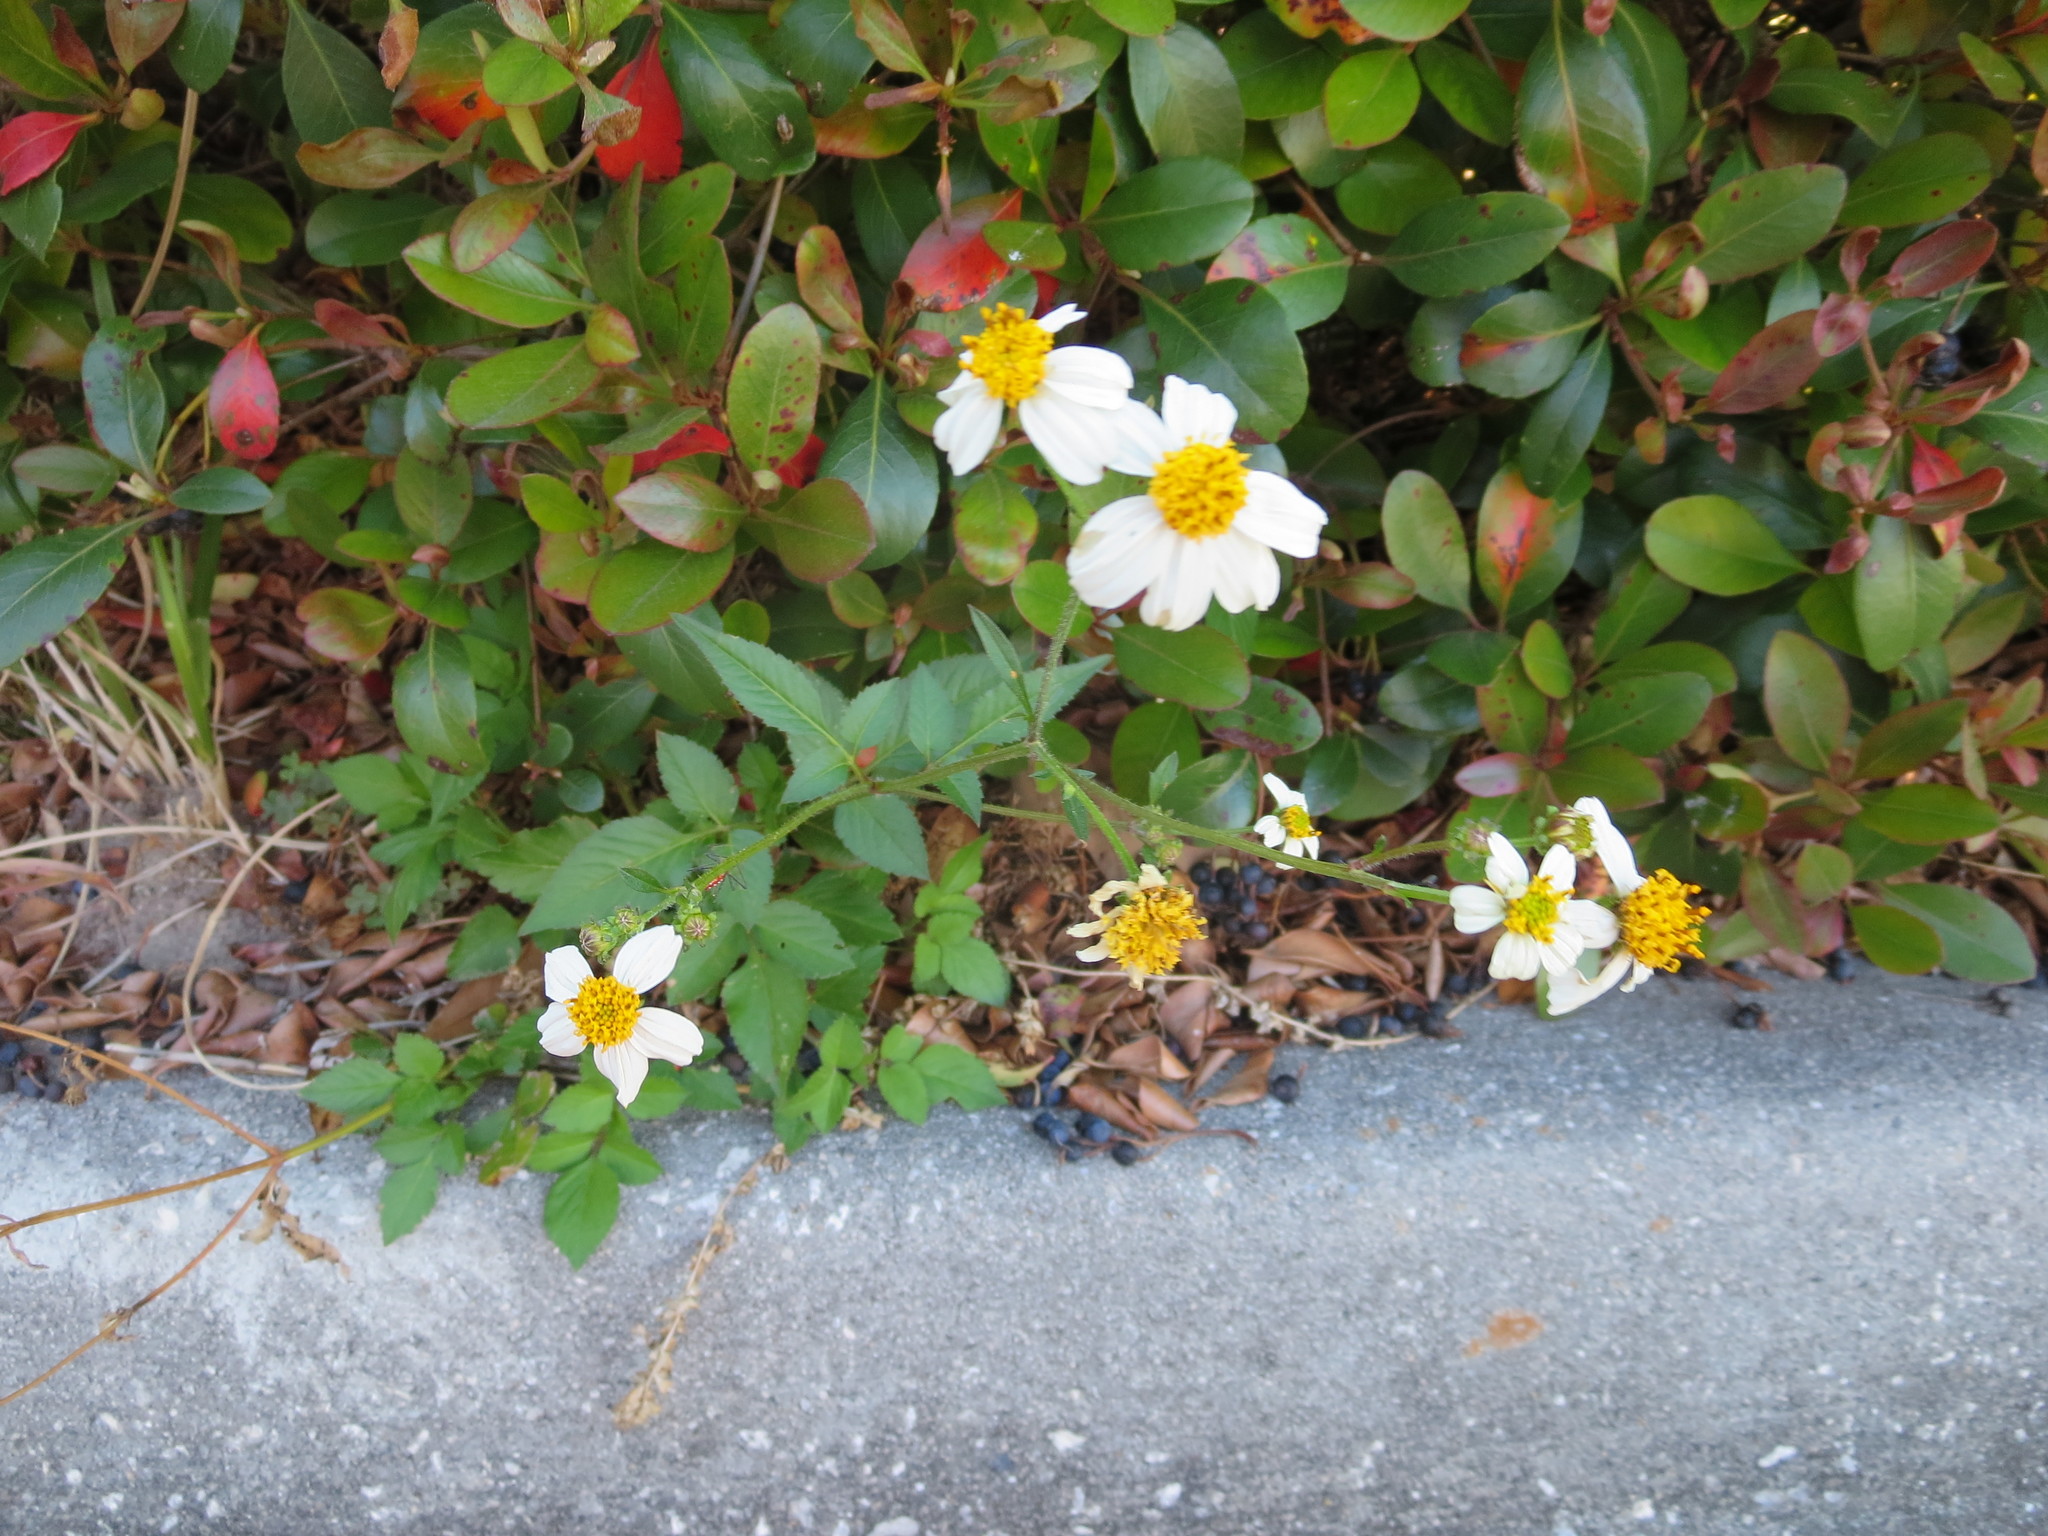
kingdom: Plantae
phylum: Tracheophyta
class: Magnoliopsida
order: Asterales
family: Asteraceae
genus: Bidens
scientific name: Bidens alba
